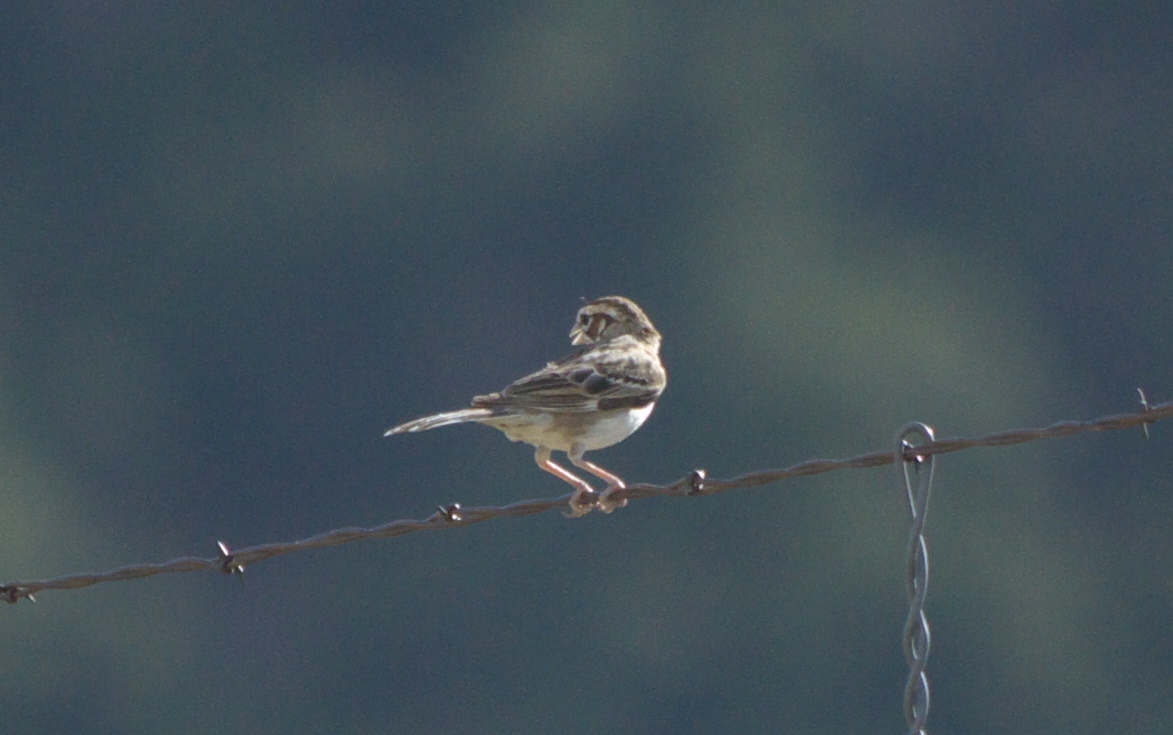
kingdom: Animalia
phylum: Chordata
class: Aves
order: Passeriformes
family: Passerellidae
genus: Chondestes
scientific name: Chondestes grammacus
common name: Lark sparrow
